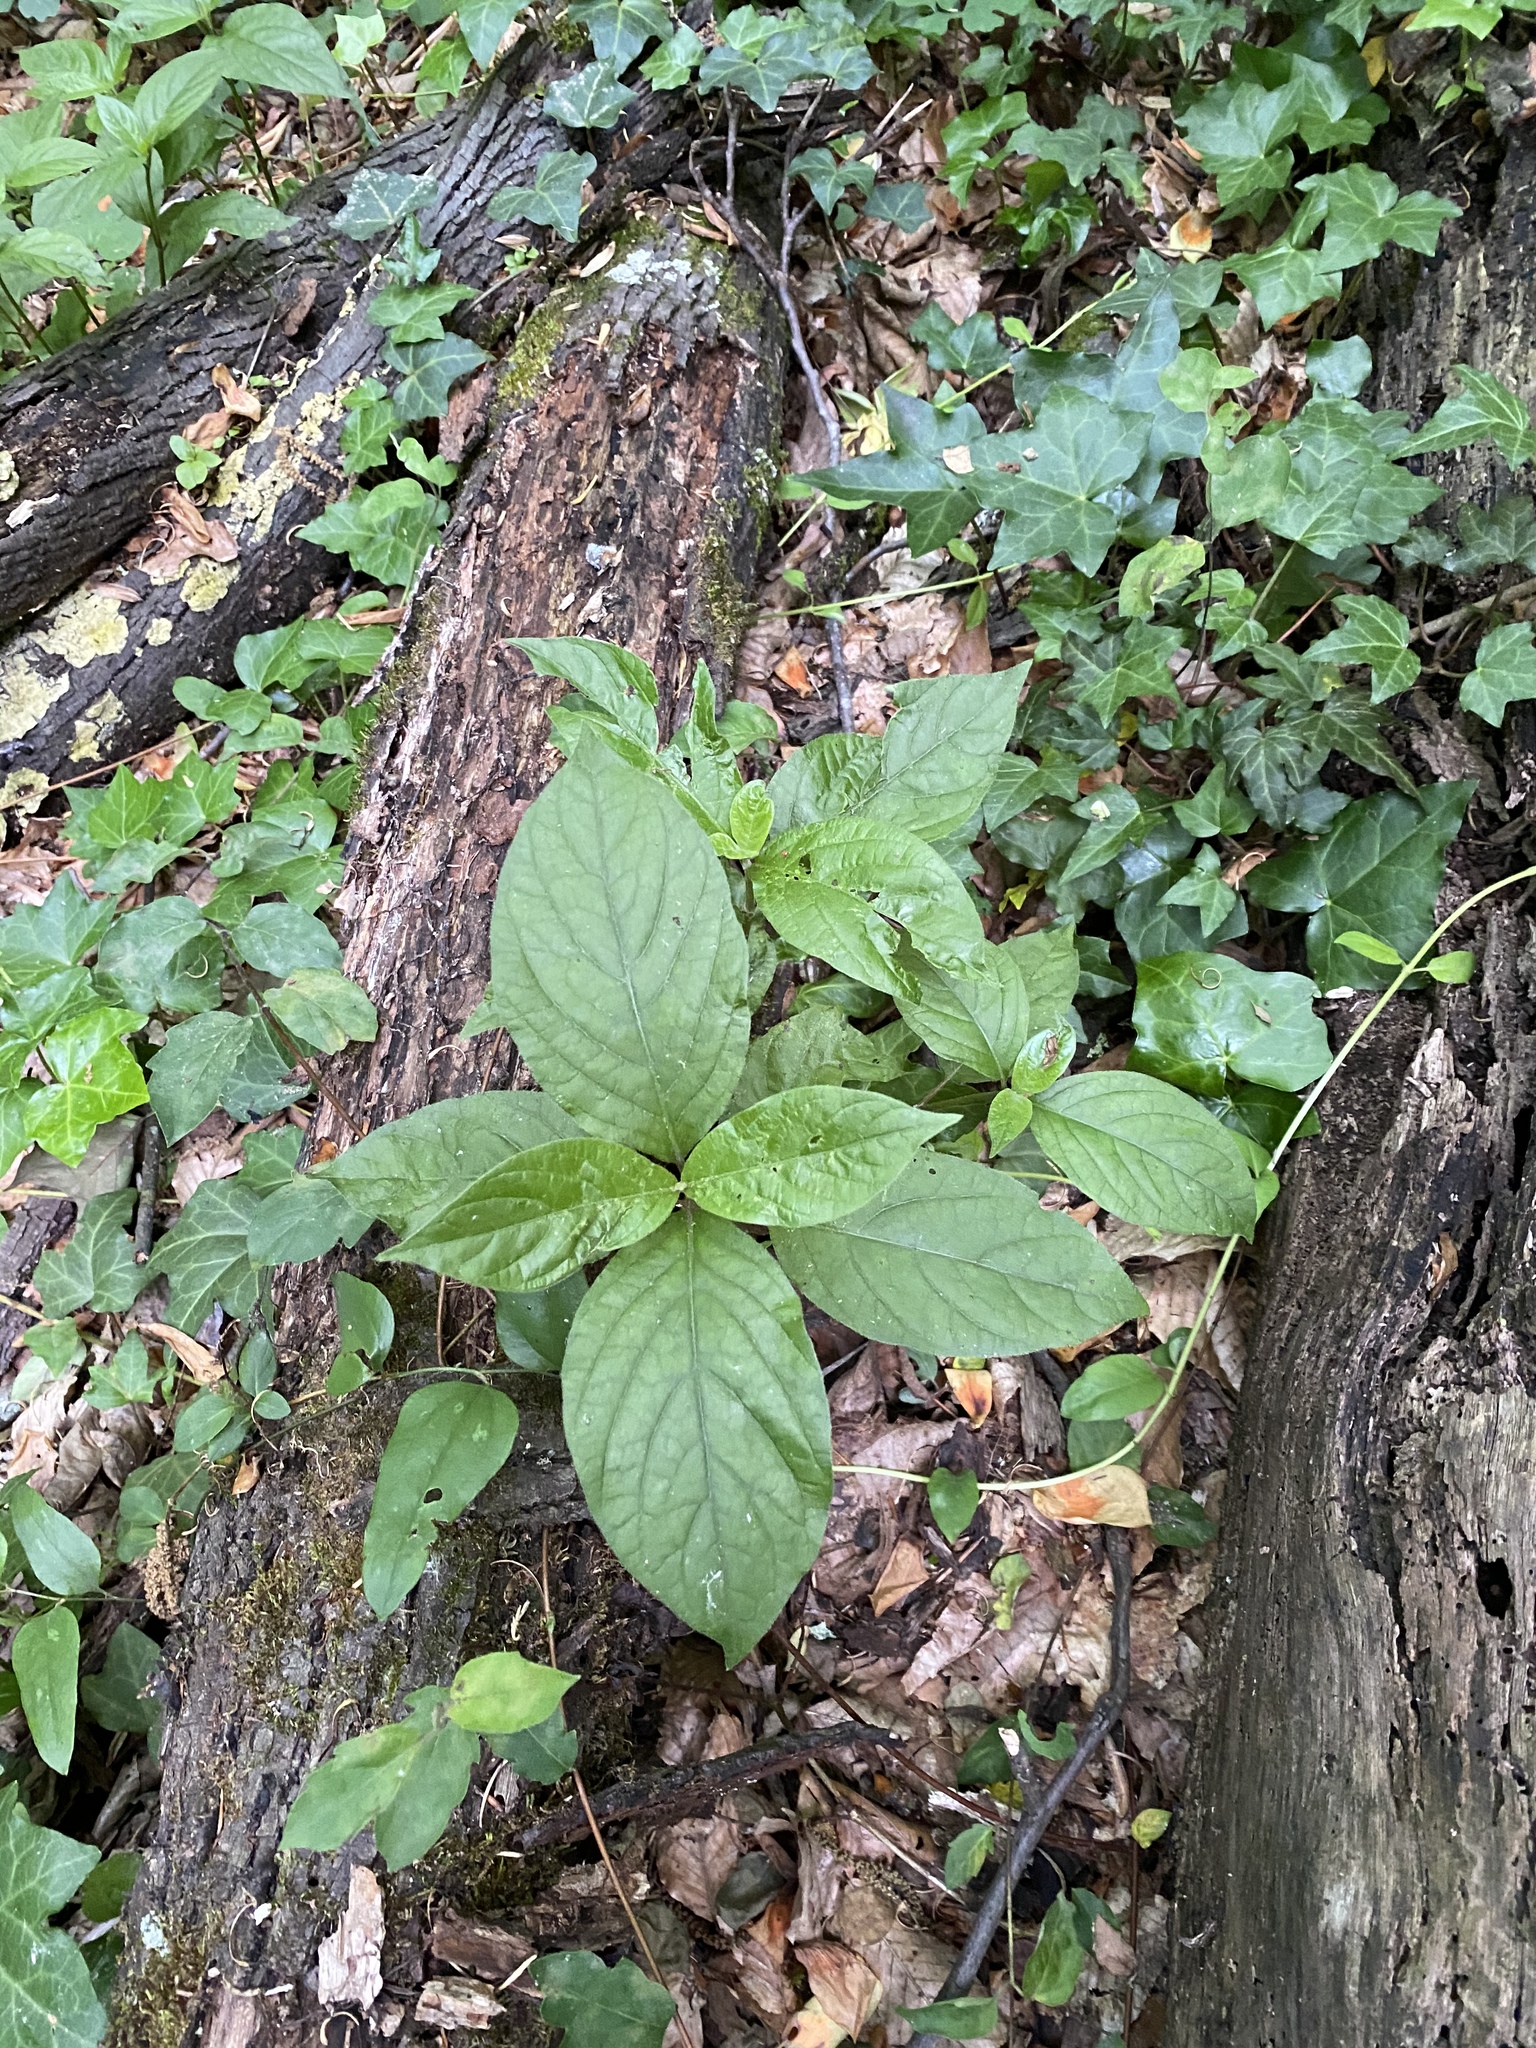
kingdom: Plantae
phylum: Tracheophyta
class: Magnoliopsida
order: Caryophyllales
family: Amaranthaceae
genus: Achyranthes
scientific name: Achyranthes bidentata
